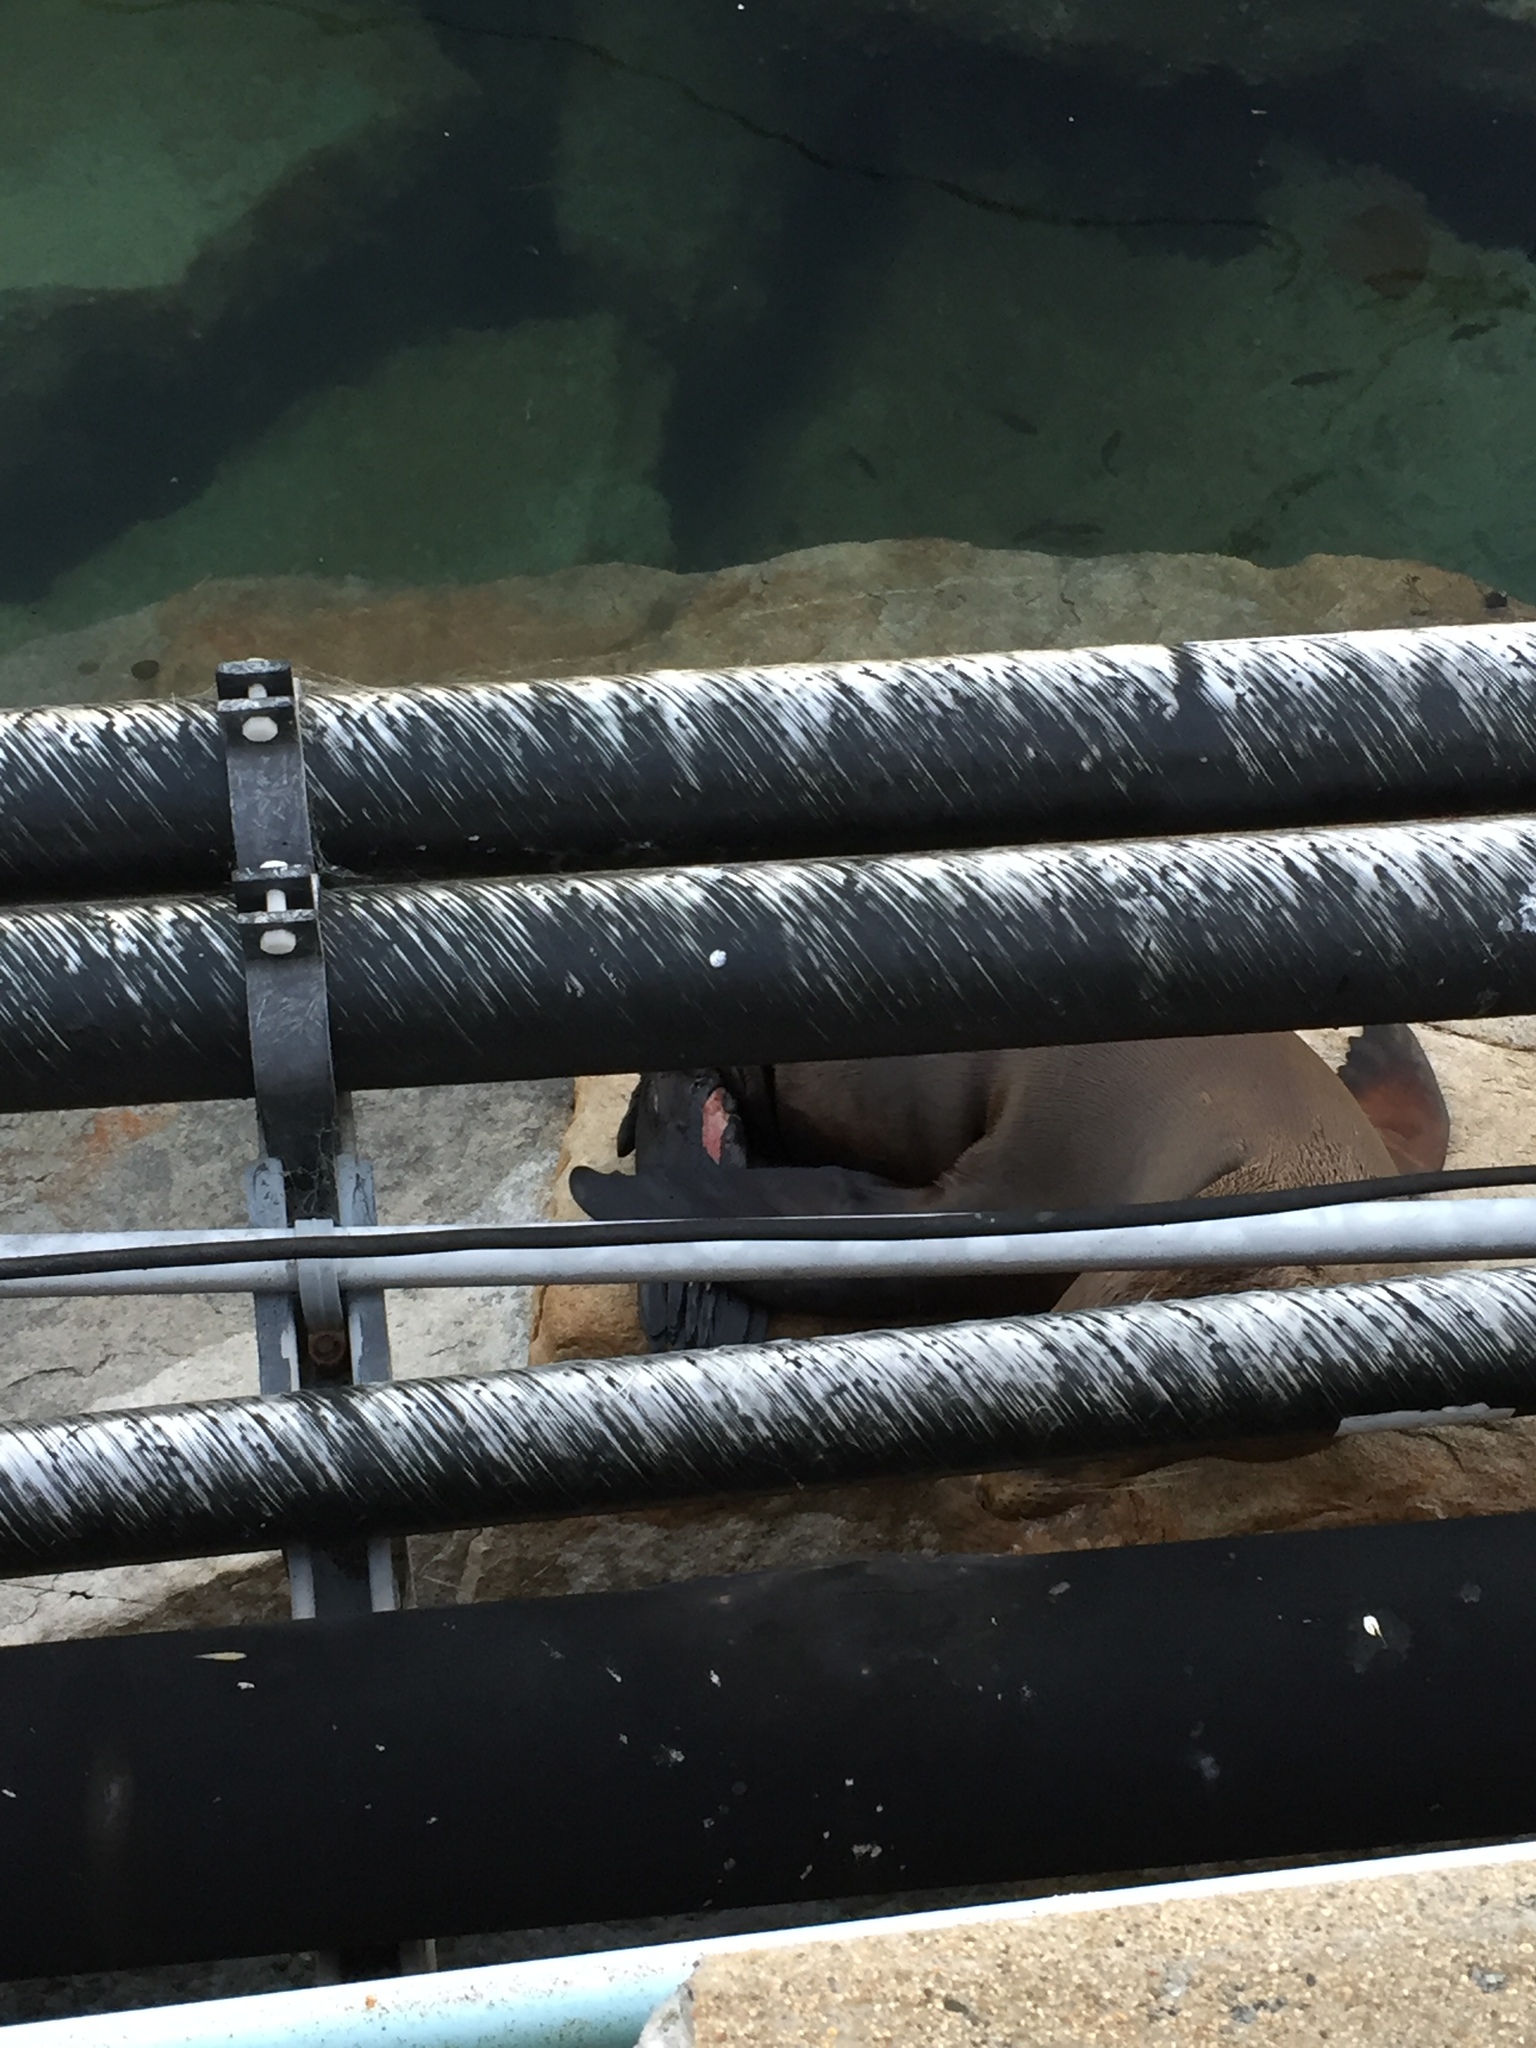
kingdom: Animalia
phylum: Chordata
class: Mammalia
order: Carnivora
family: Otariidae
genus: Zalophus
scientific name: Zalophus californianus
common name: California sea lion
